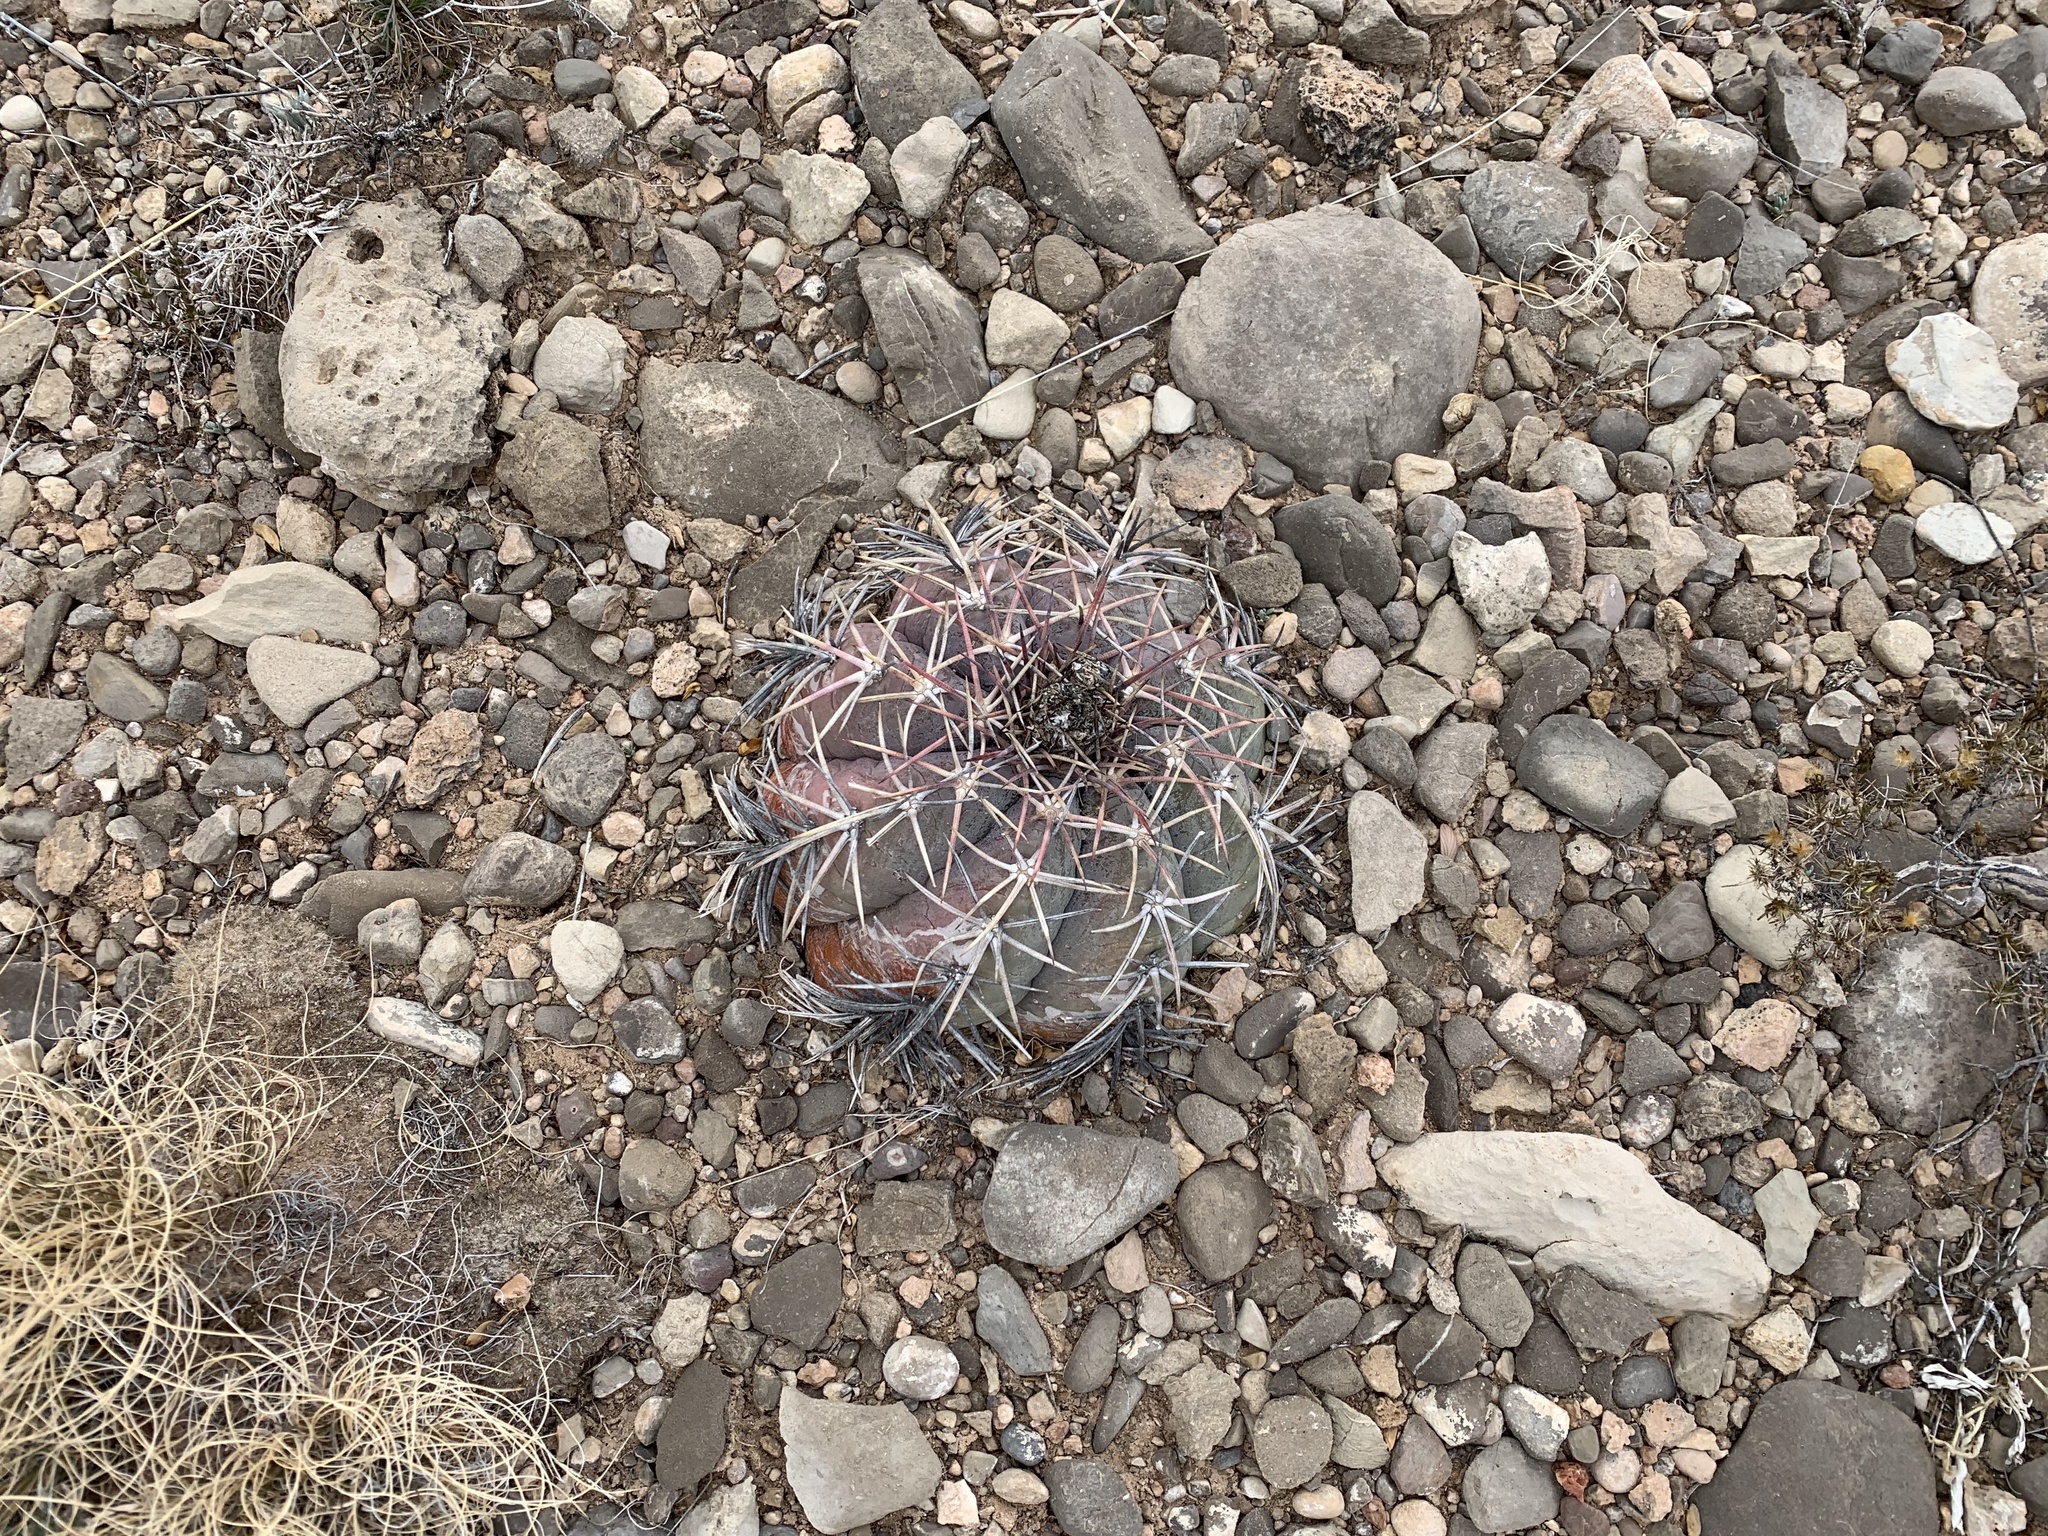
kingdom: Plantae
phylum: Tracheophyta
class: Magnoliopsida
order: Caryophyllales
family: Cactaceae
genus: Echinocactus
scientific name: Echinocactus horizonthalonius
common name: Devilshead
